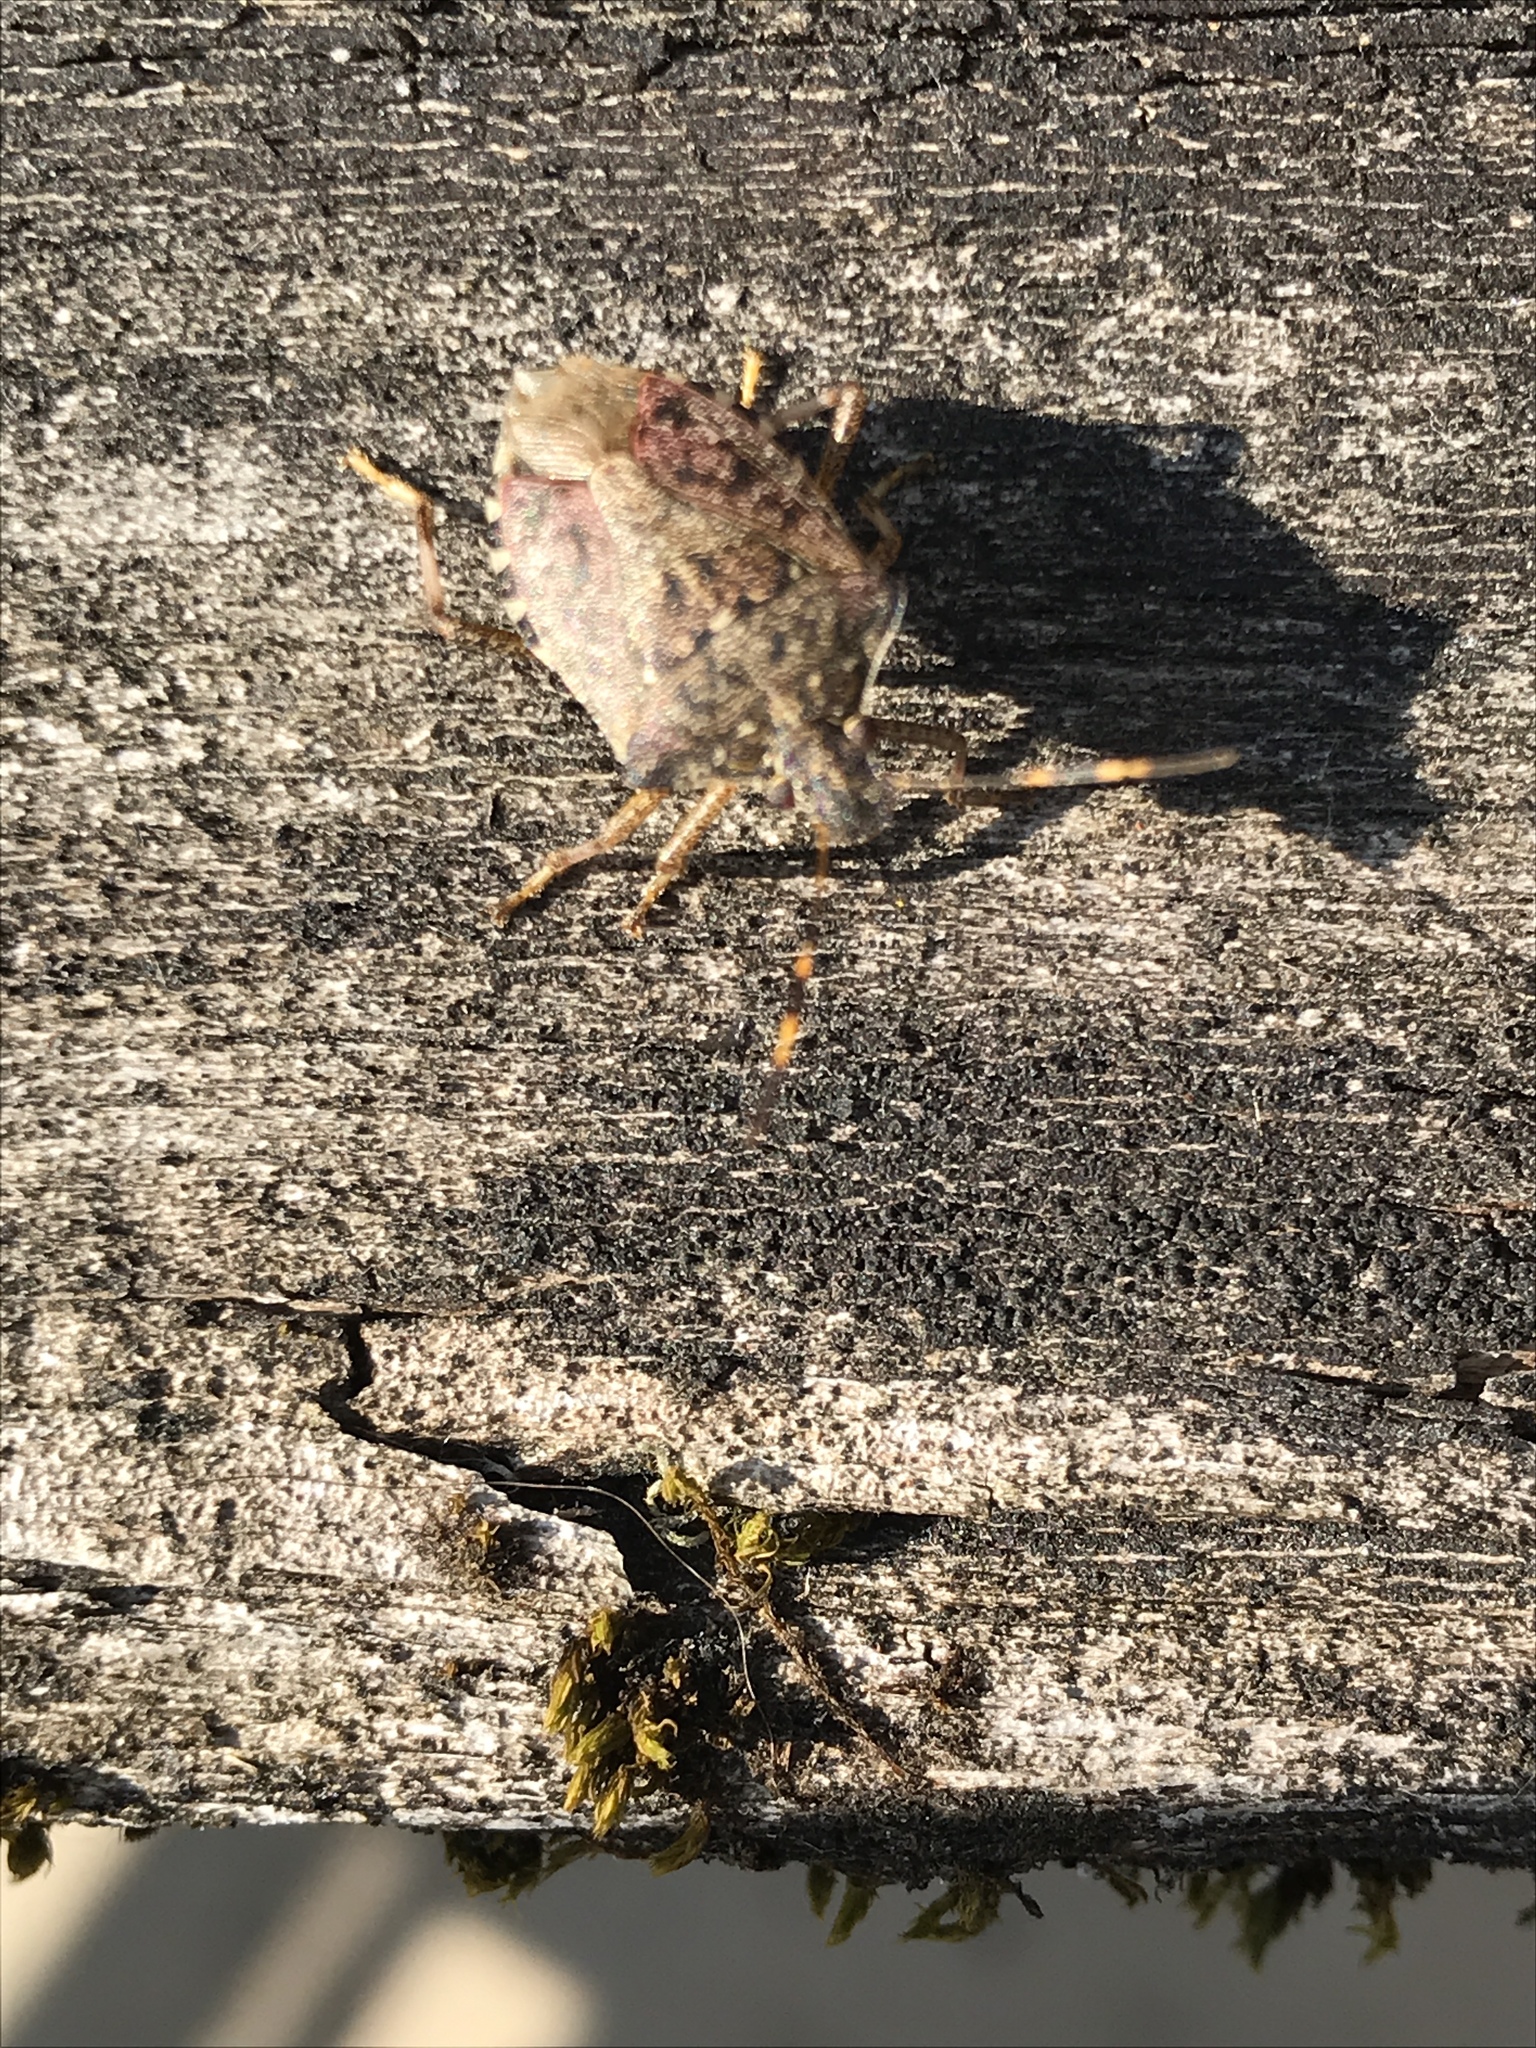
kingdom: Animalia
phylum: Arthropoda
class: Insecta
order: Hemiptera
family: Pentatomidae
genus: Halyomorpha
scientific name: Halyomorpha halys
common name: Brown marmorated stink bug
